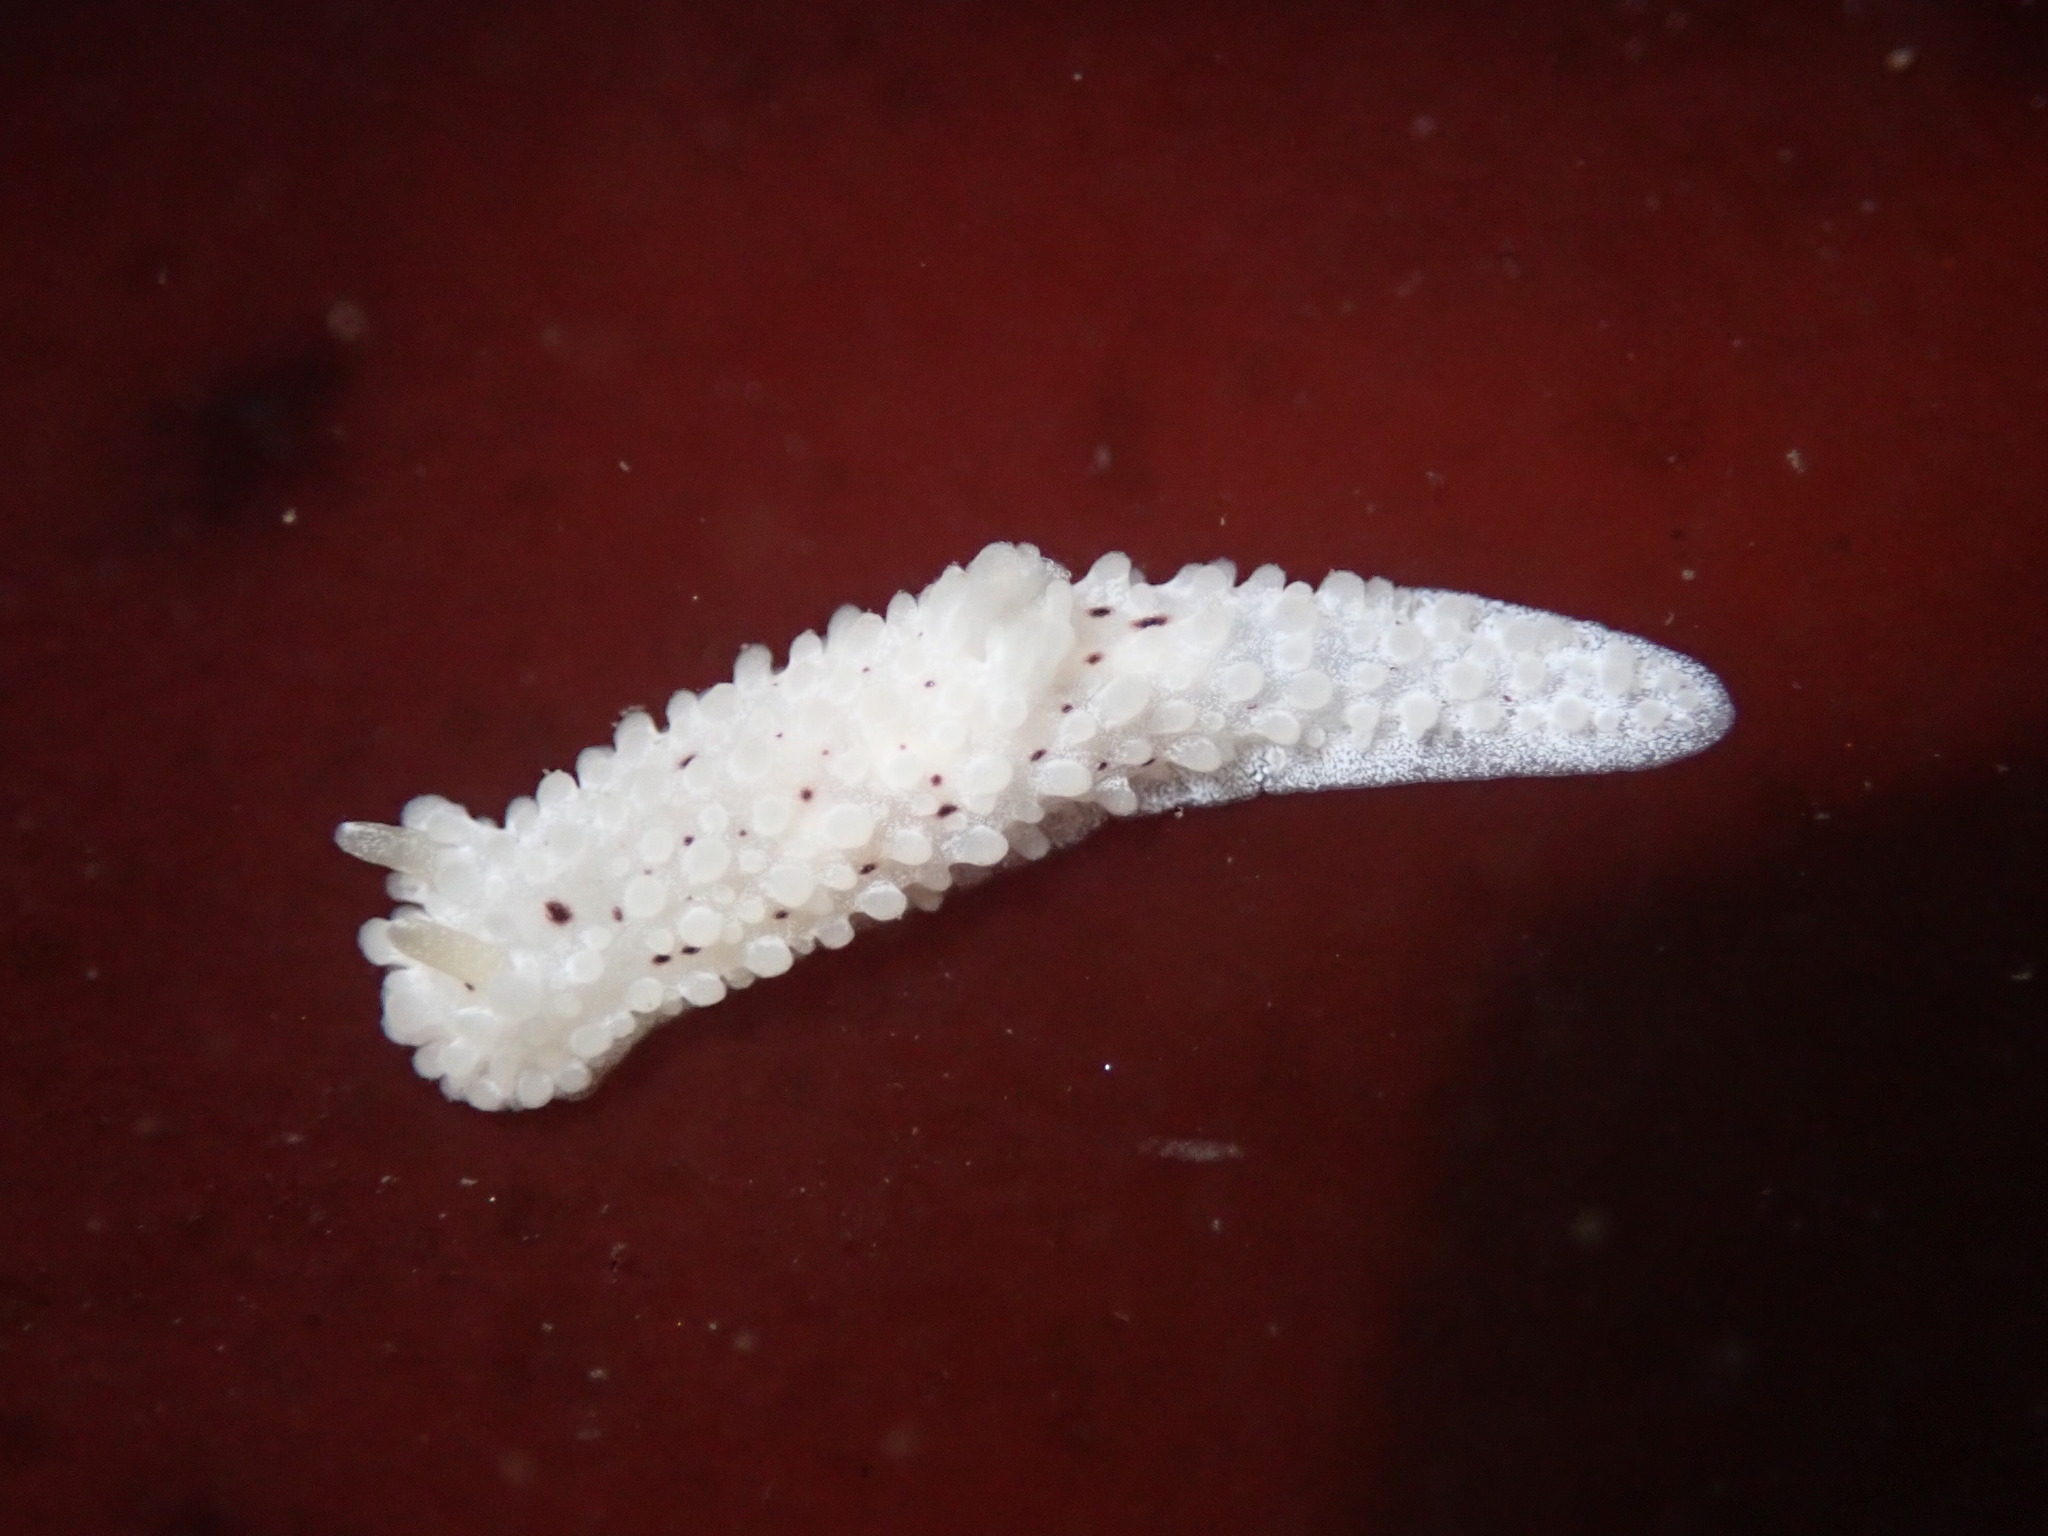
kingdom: Animalia
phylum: Mollusca
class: Gastropoda
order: Nudibranchia
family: Aegiridae
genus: Aegires
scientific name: Aegires albopunctatus
